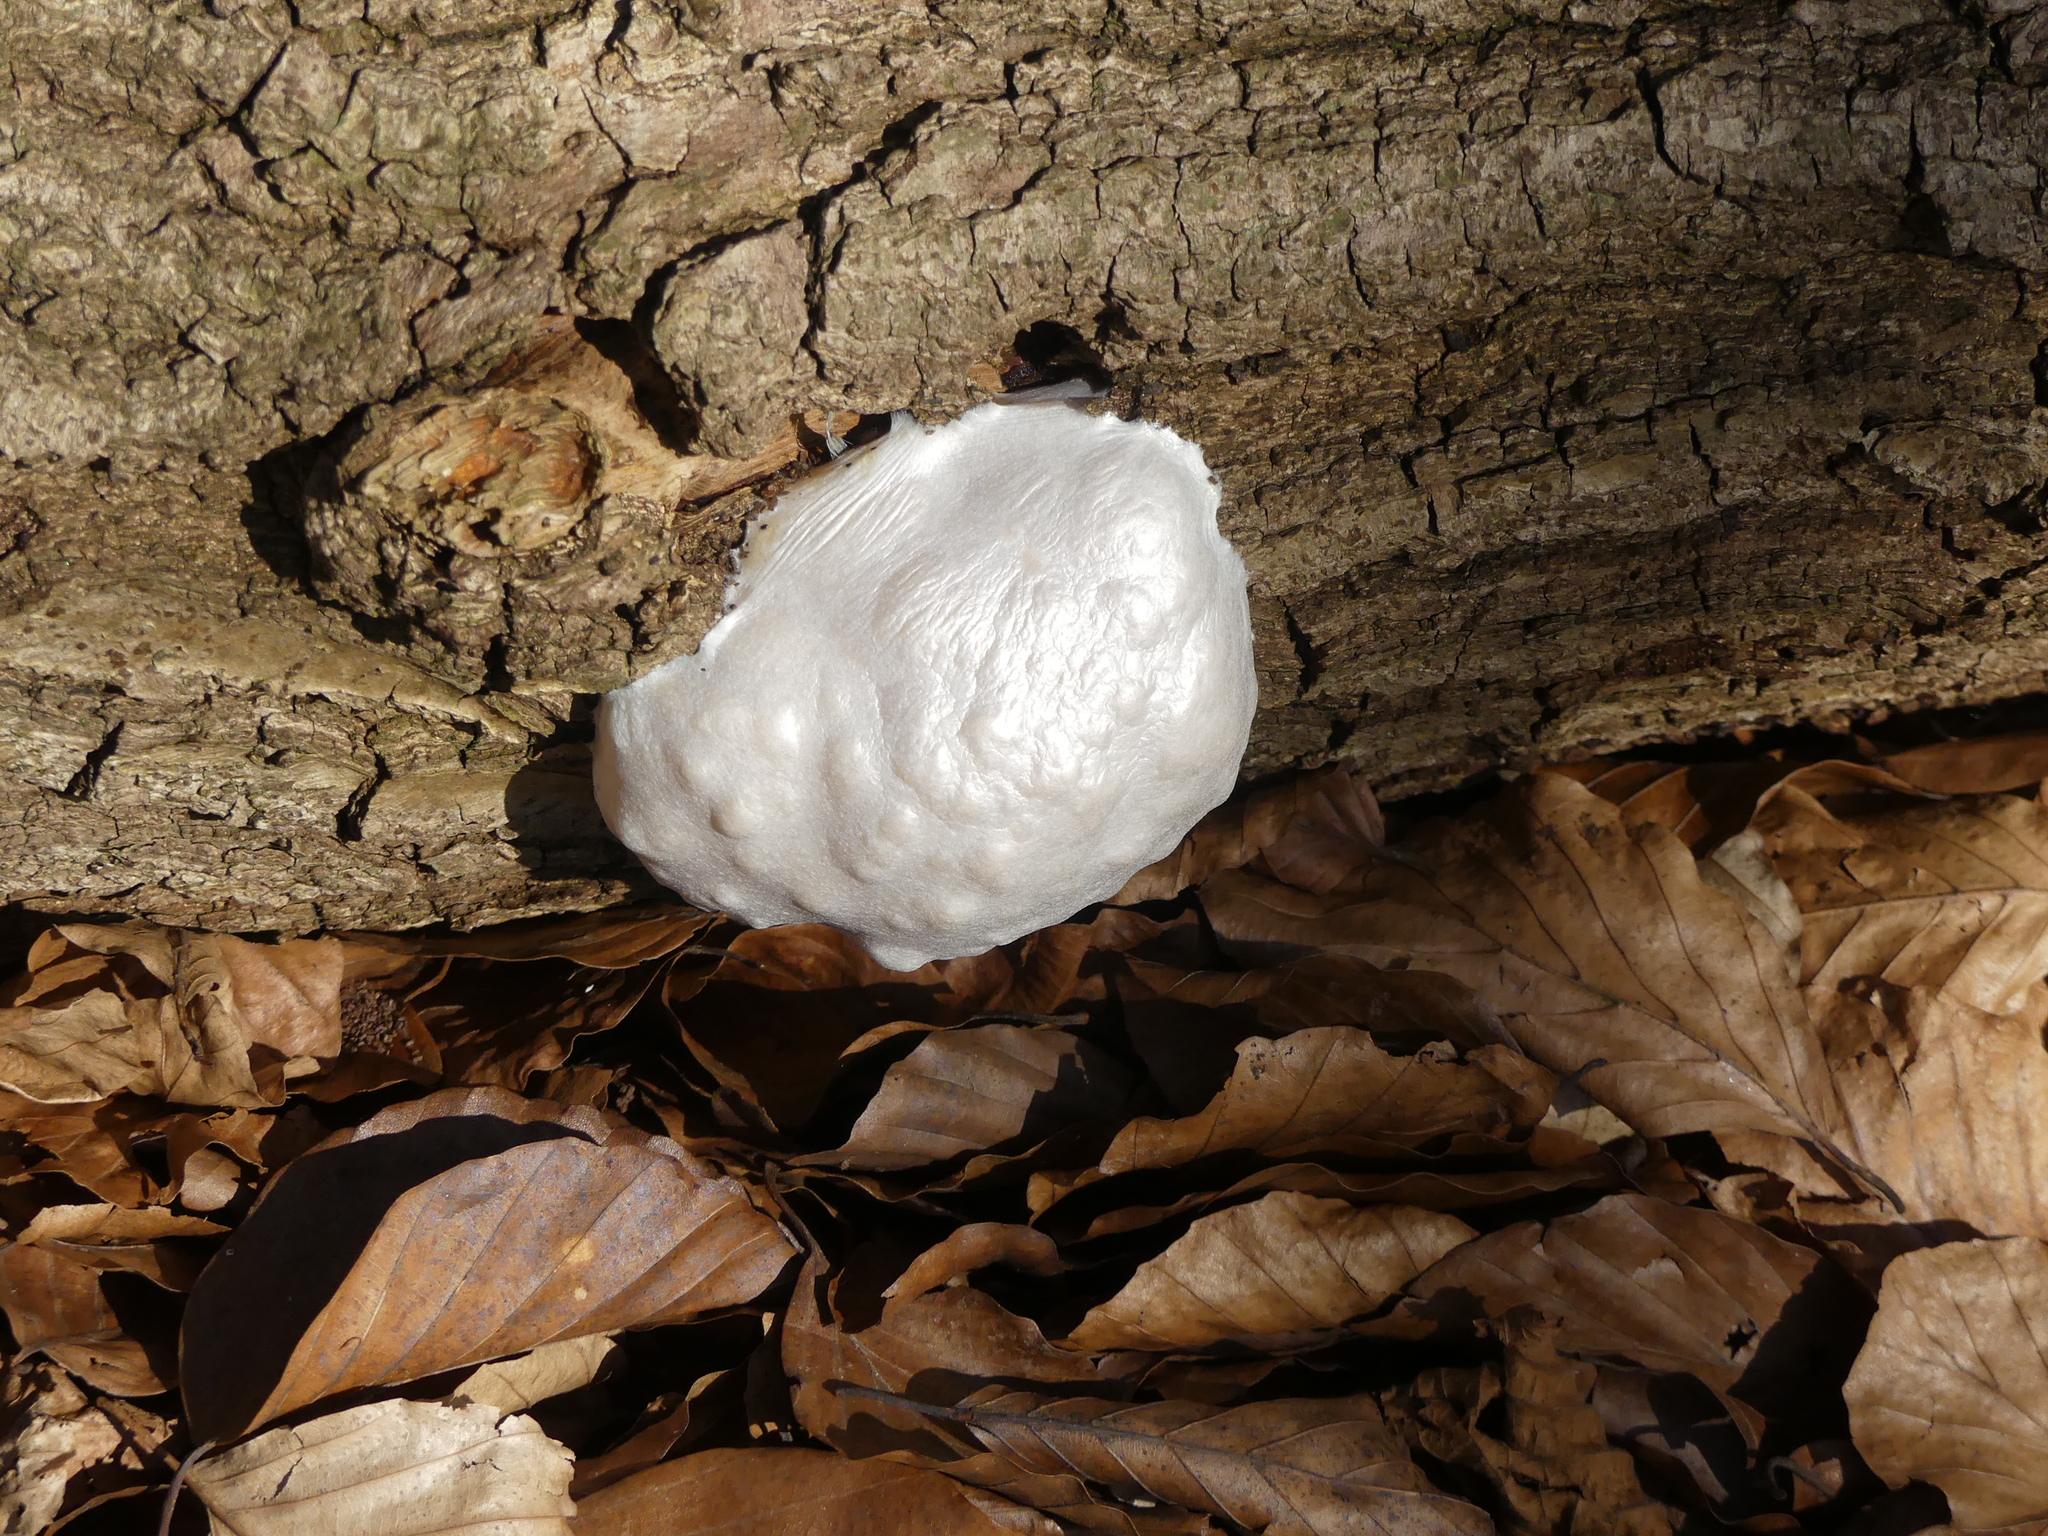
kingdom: Protozoa
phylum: Mycetozoa
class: Myxomycetes
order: Cribrariales
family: Tubiferaceae
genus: Reticularia
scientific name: Reticularia lycoperdon
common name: False puffball
